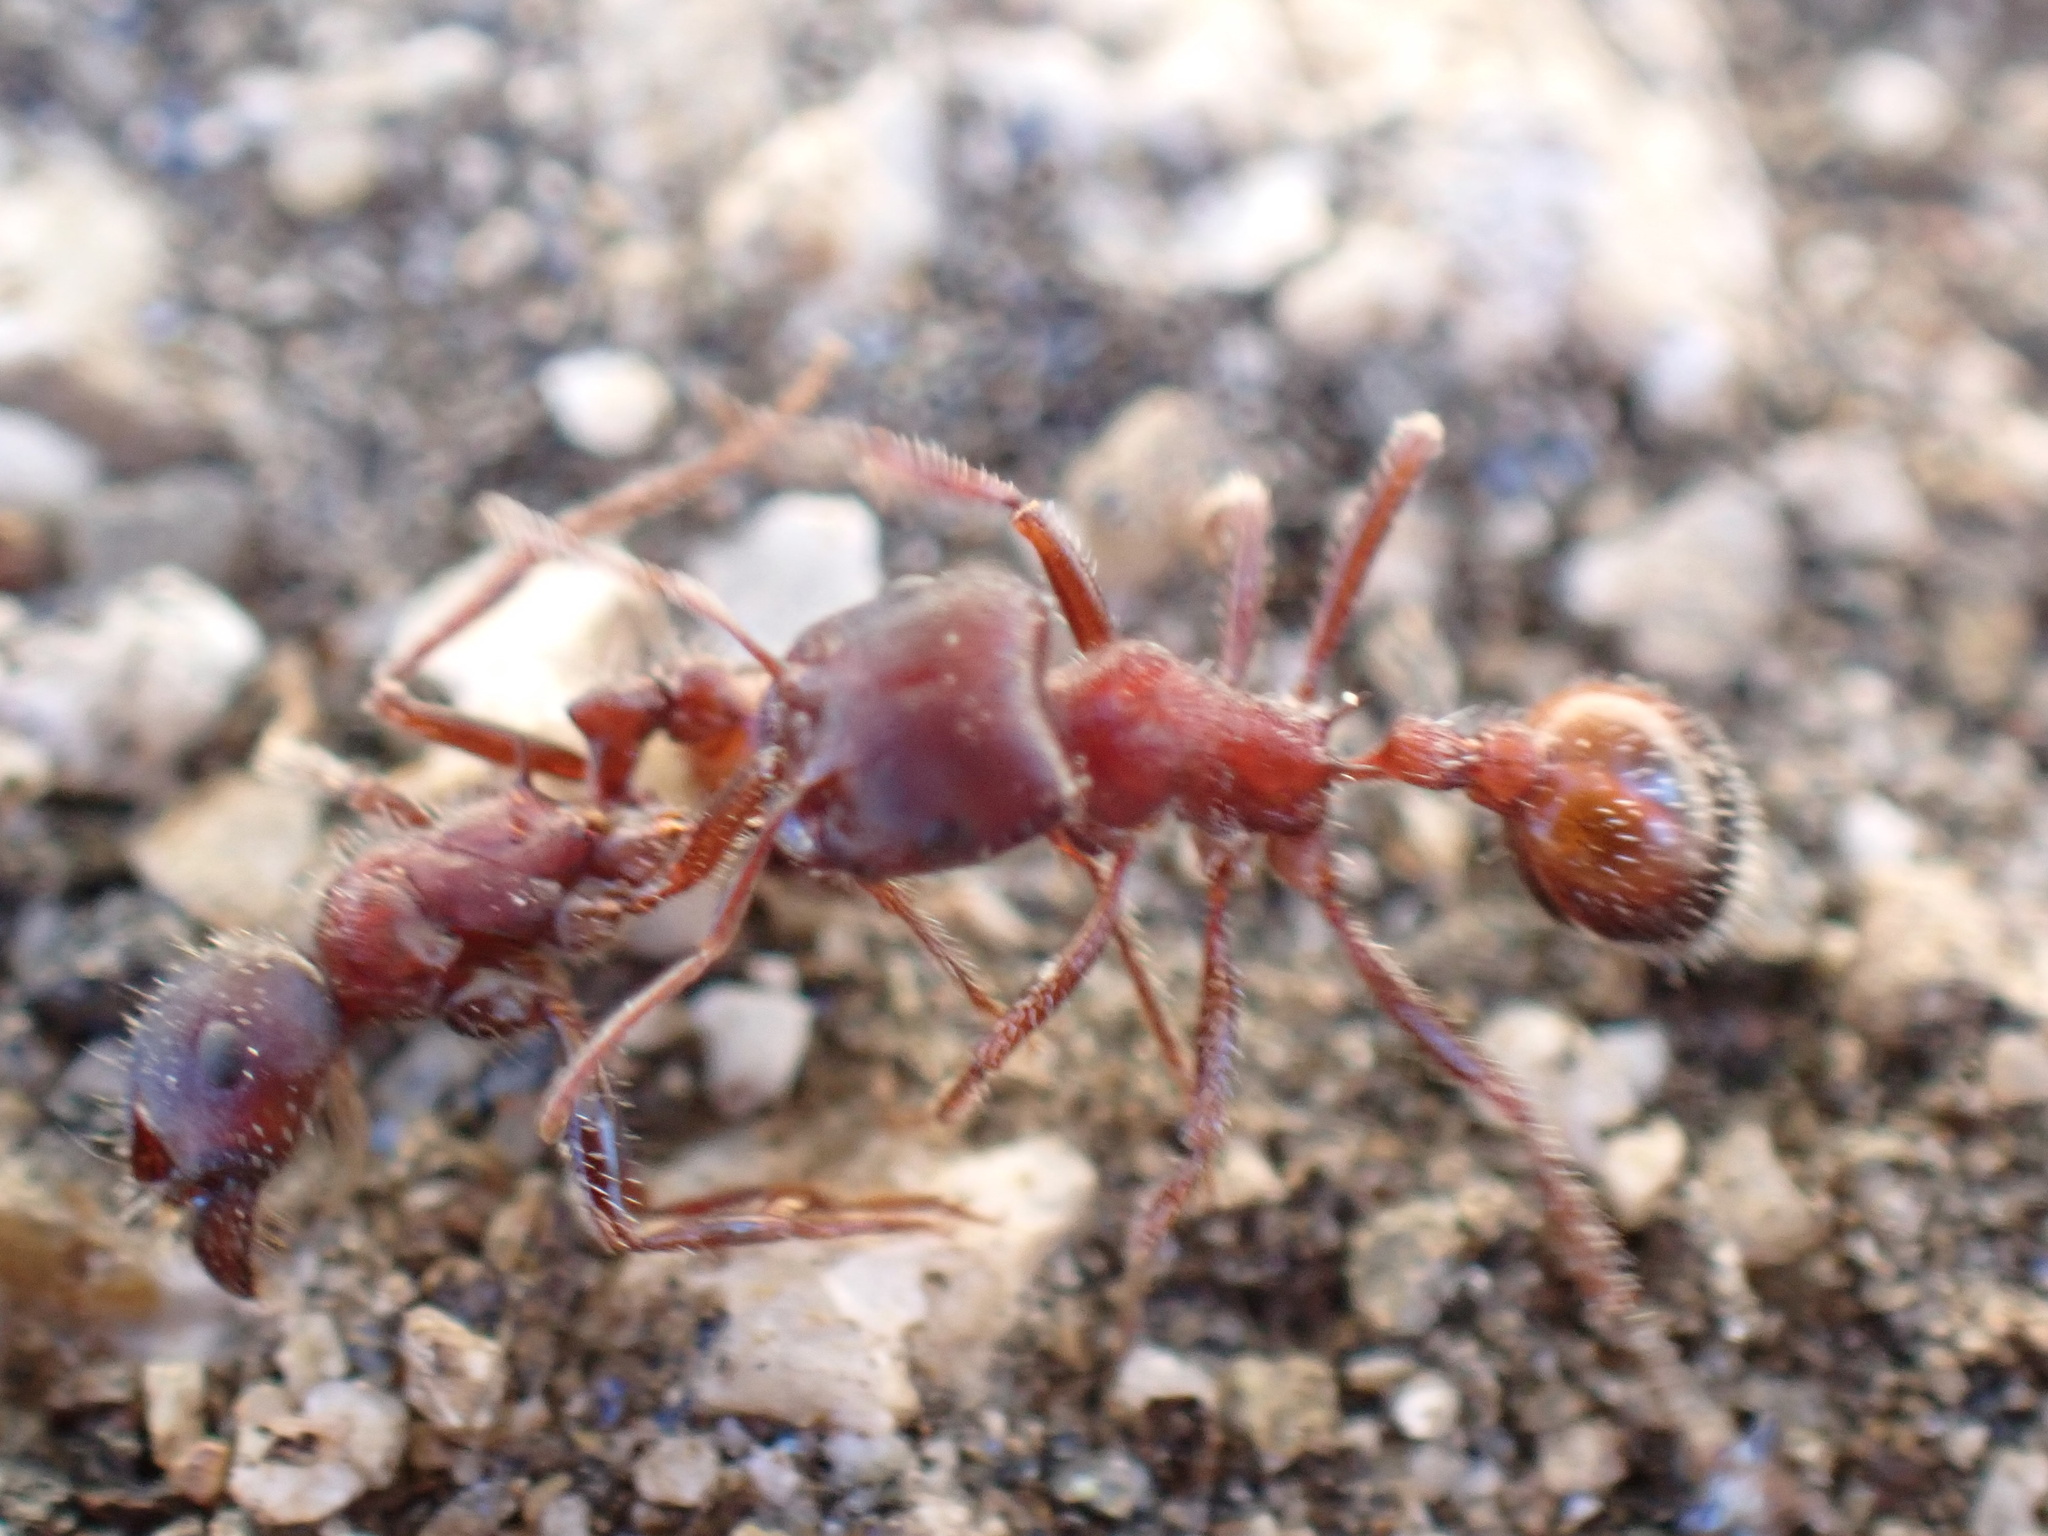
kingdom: Animalia
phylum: Arthropoda
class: Insecta
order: Hymenoptera
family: Formicidae
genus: Pogonomyrmex
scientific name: Pogonomyrmex rugosus
